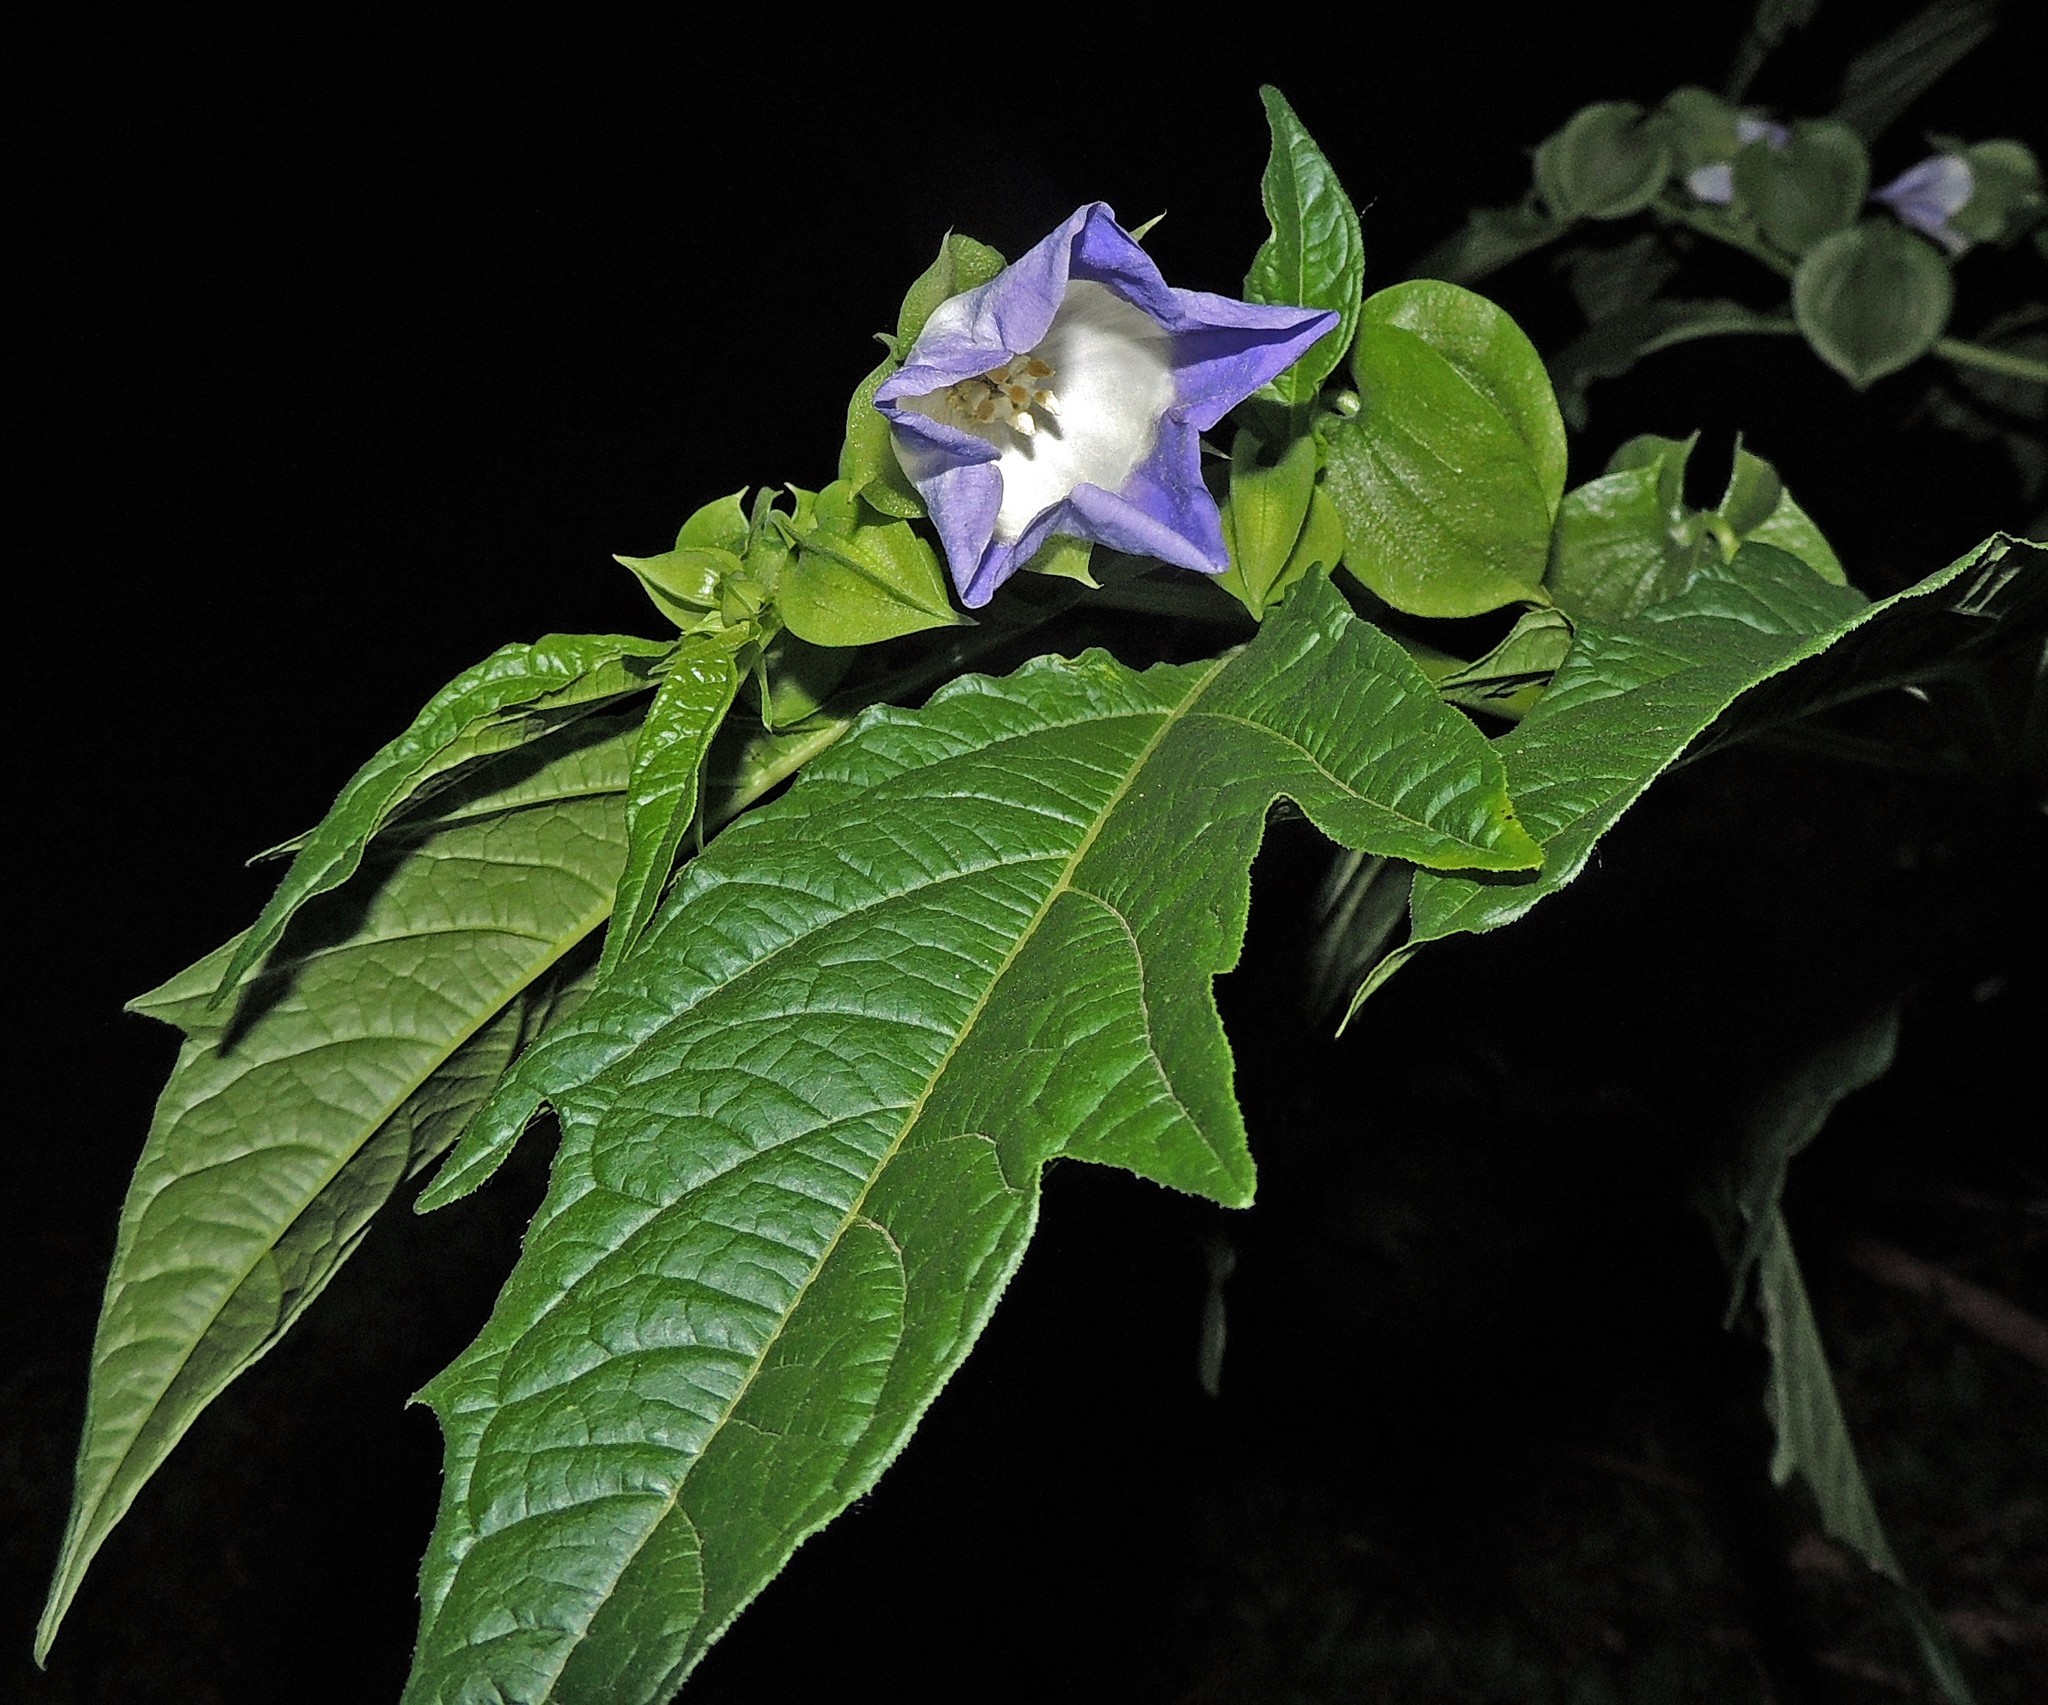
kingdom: Plantae
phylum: Tracheophyta
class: Magnoliopsida
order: Solanales
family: Solanaceae
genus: Nicandra
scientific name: Nicandra physalodes
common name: Apple-of-peru
